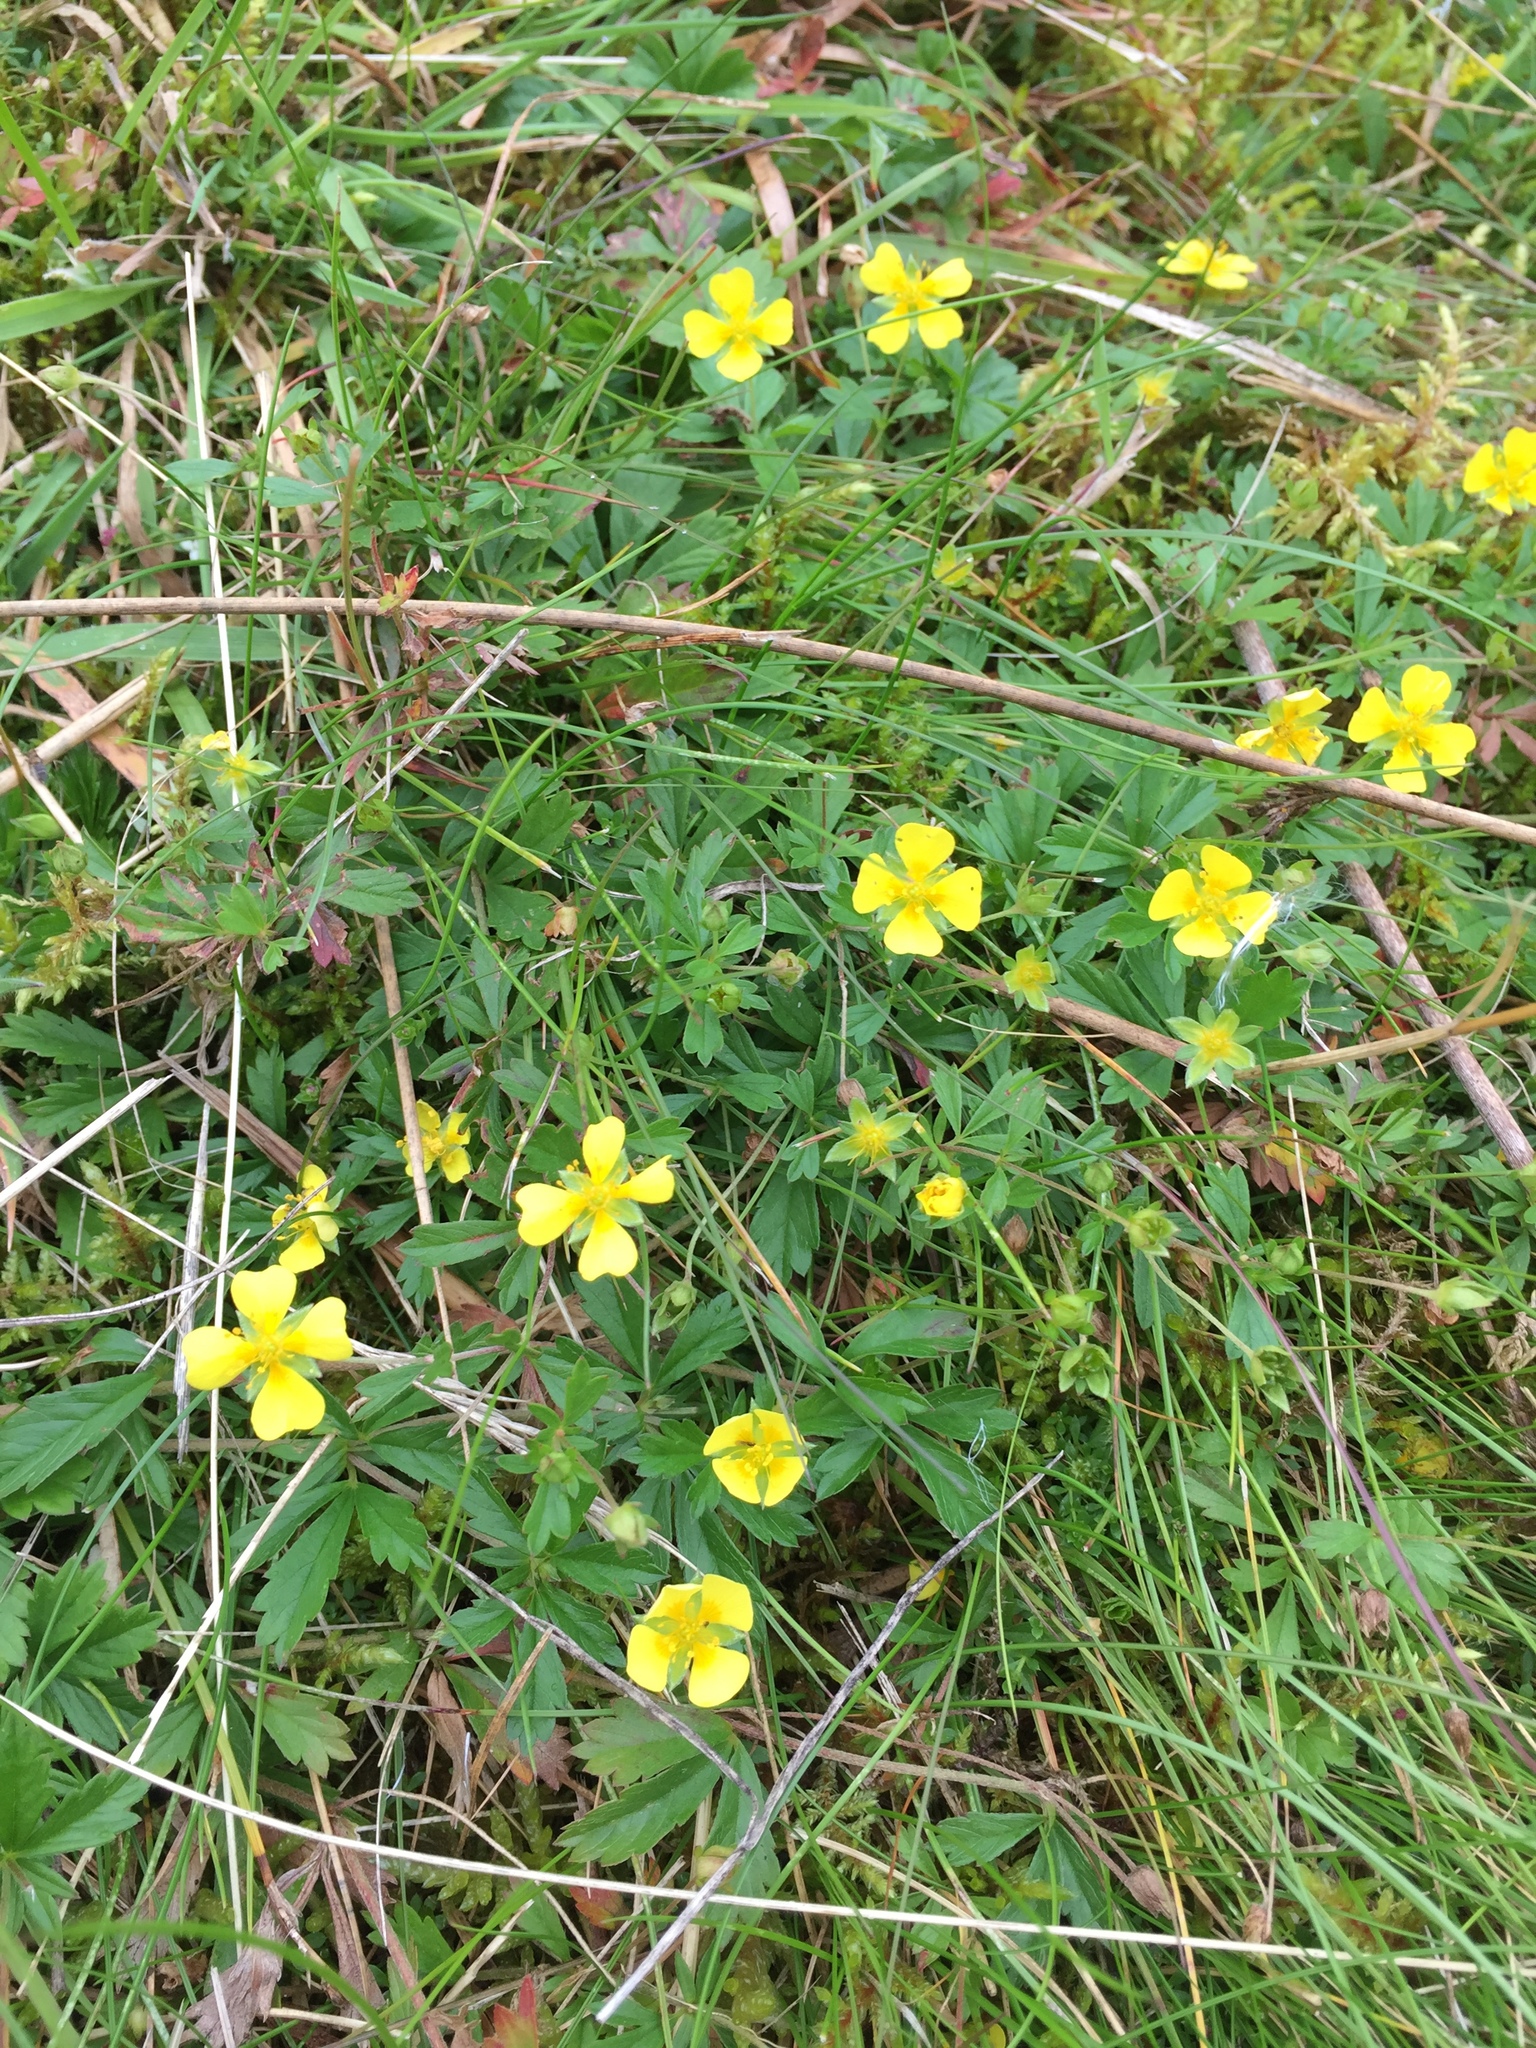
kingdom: Plantae
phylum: Tracheophyta
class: Magnoliopsida
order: Rosales
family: Rosaceae
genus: Potentilla
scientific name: Potentilla erecta
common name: Tormentil
